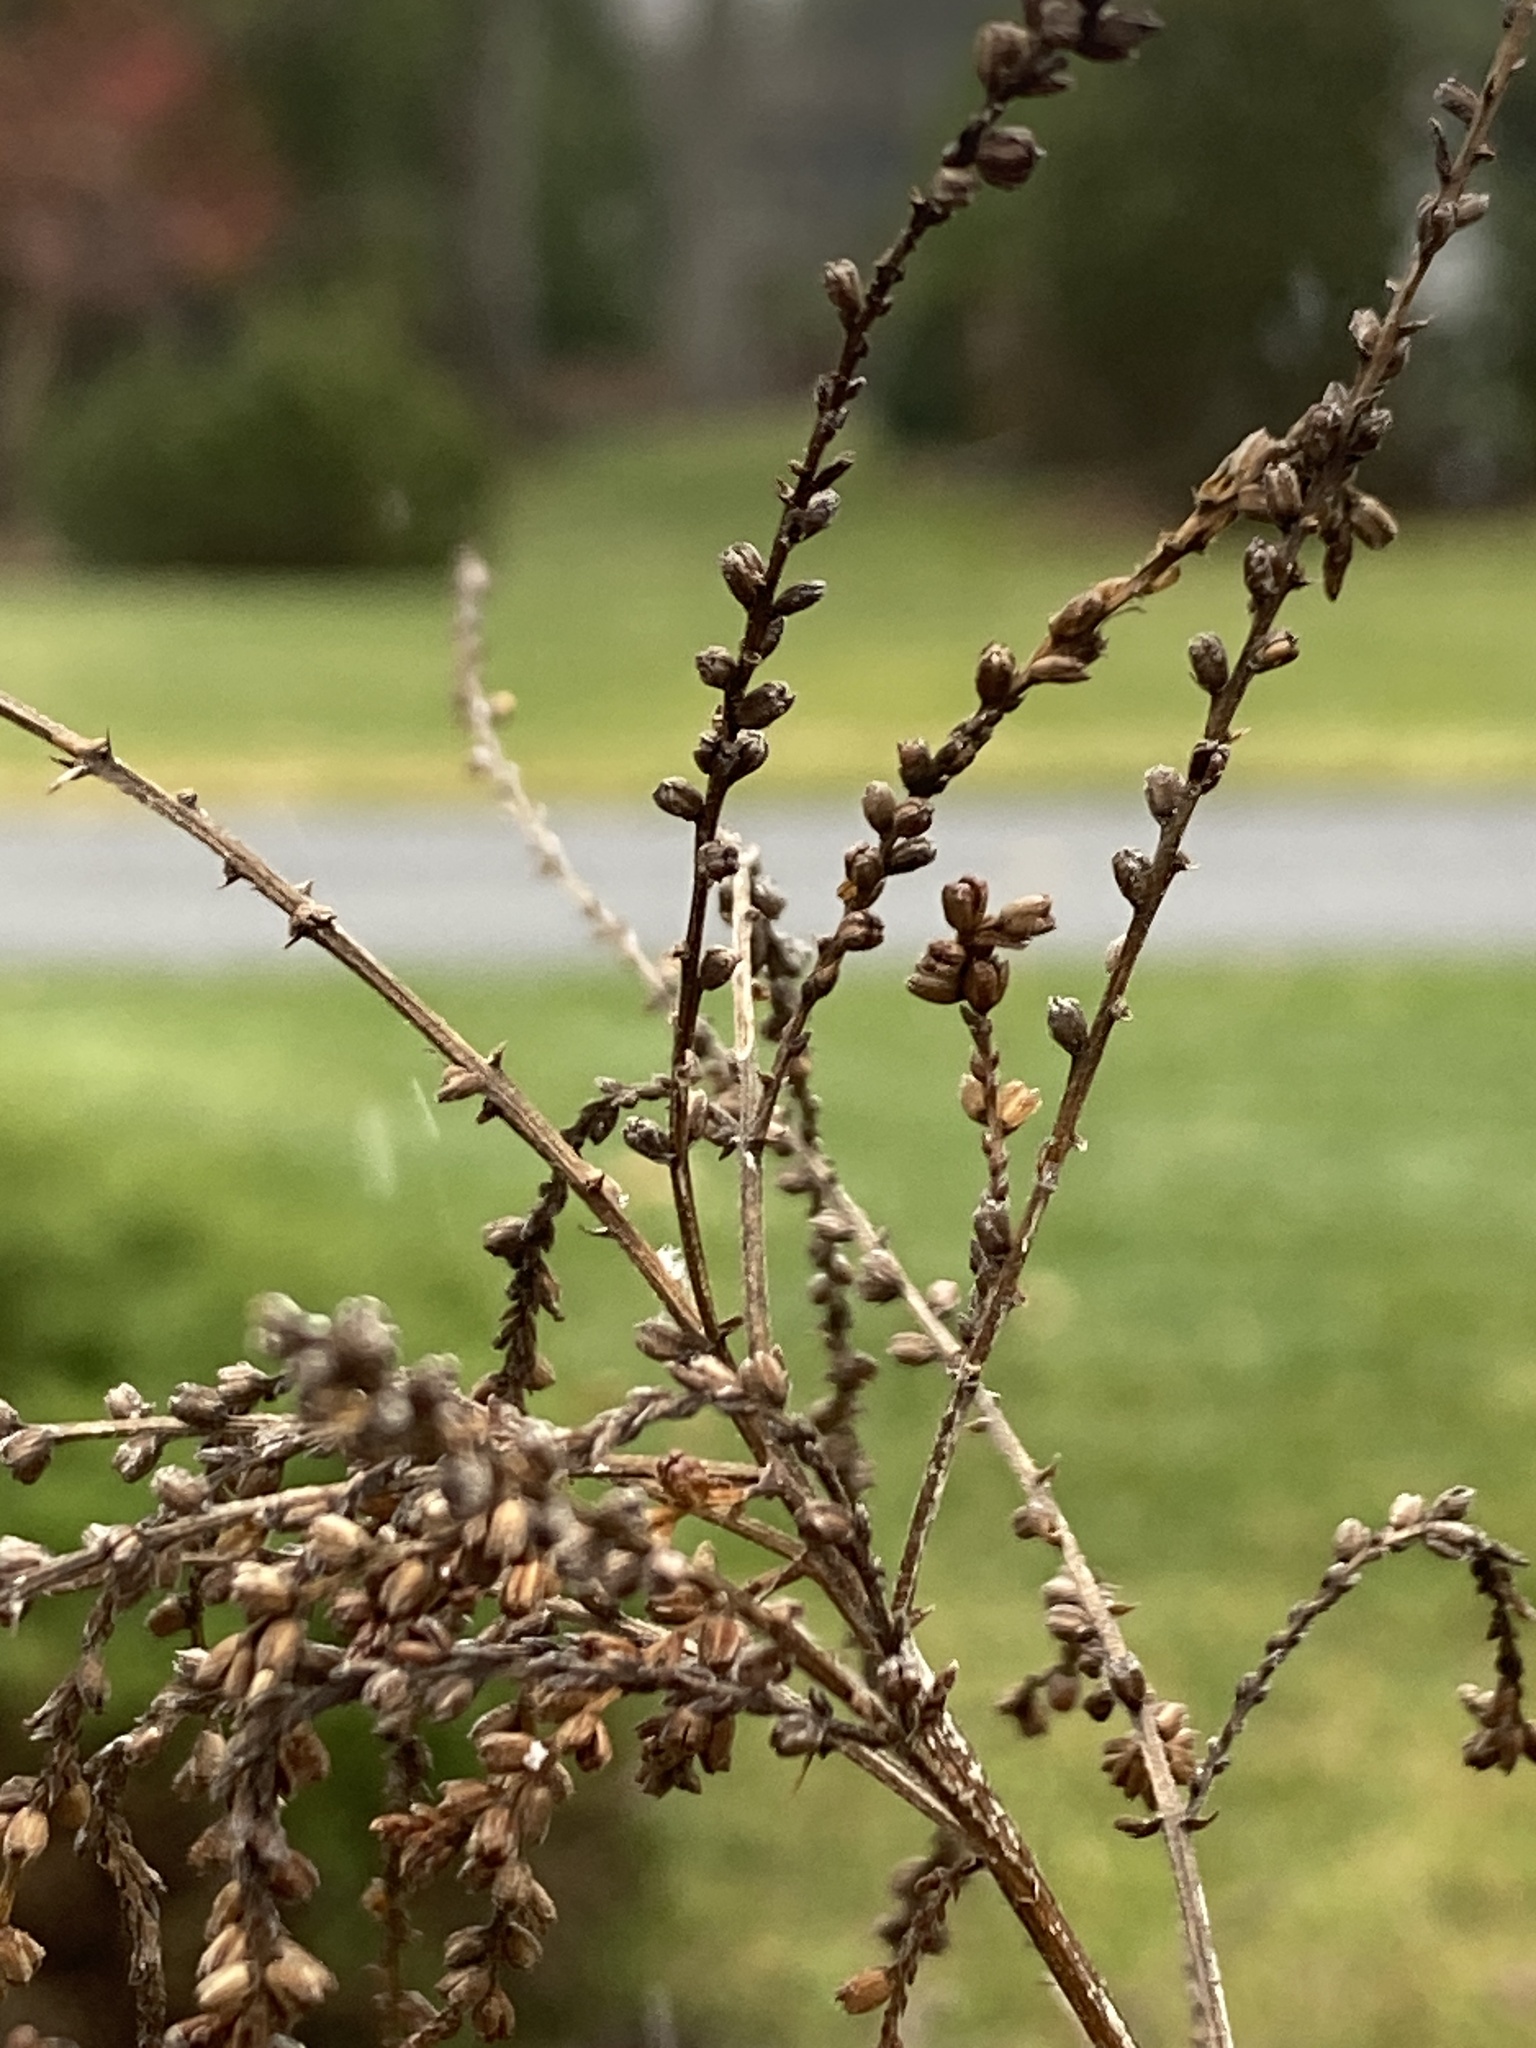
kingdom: Plantae
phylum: Tracheophyta
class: Magnoliopsida
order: Lamiales
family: Verbenaceae
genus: Verbena
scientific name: Verbena urticifolia
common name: Nettle-leaved vervain
